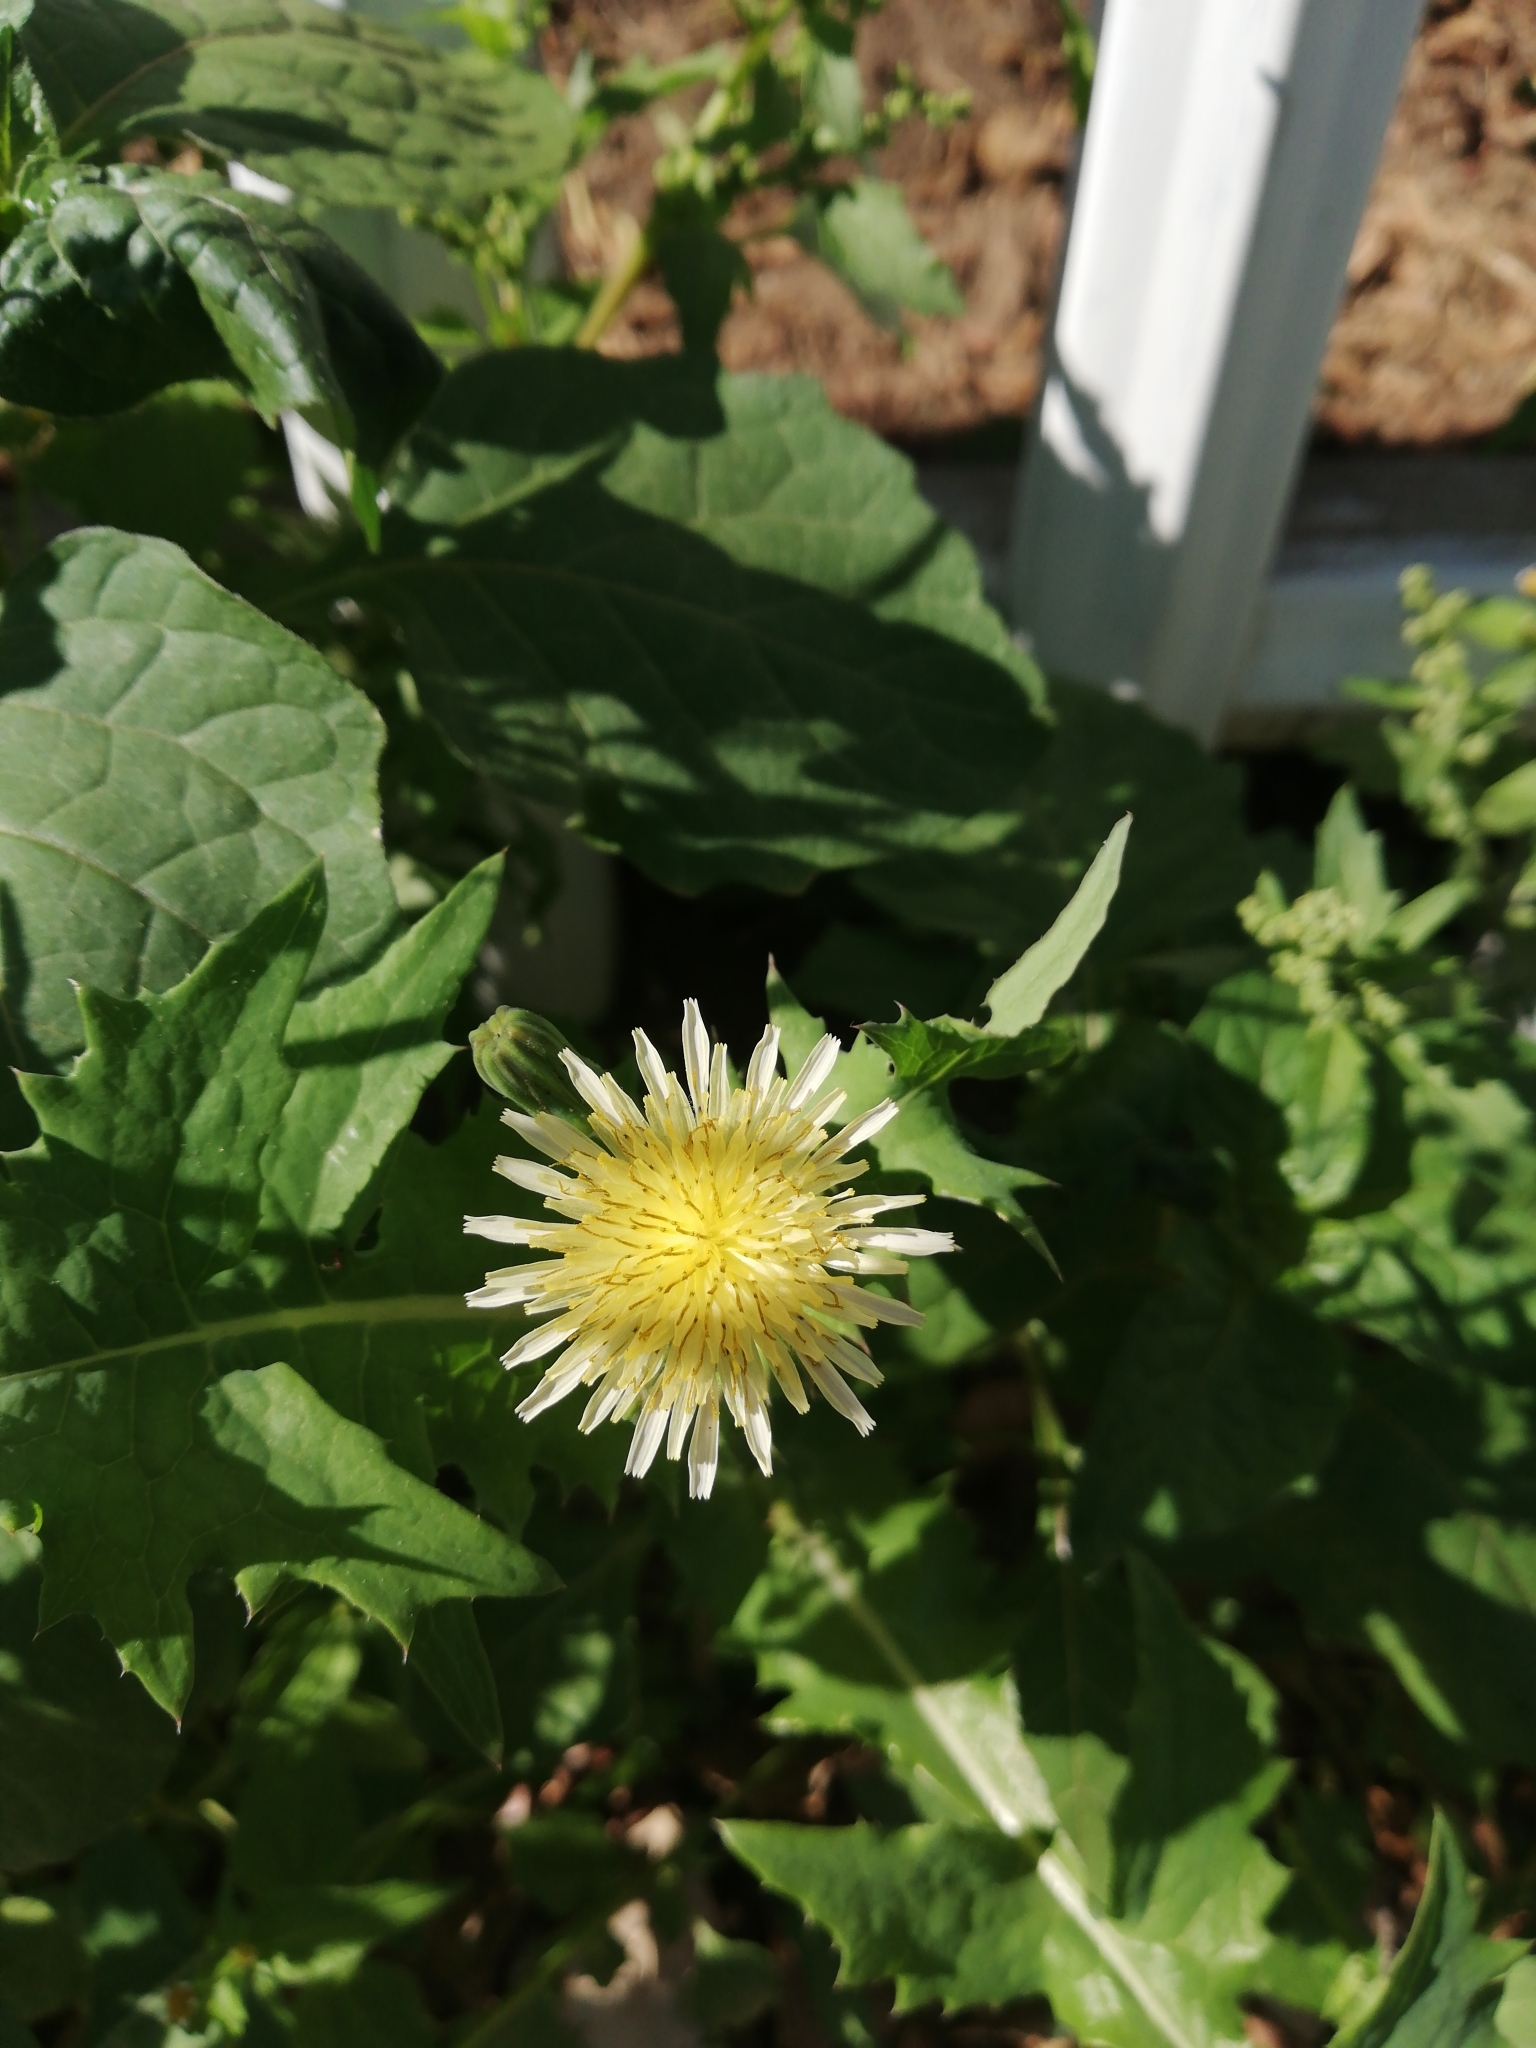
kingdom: Plantae
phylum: Tracheophyta
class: Magnoliopsida
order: Asterales
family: Asteraceae
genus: Sonchus
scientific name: Sonchus oleraceus
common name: Common sowthistle
